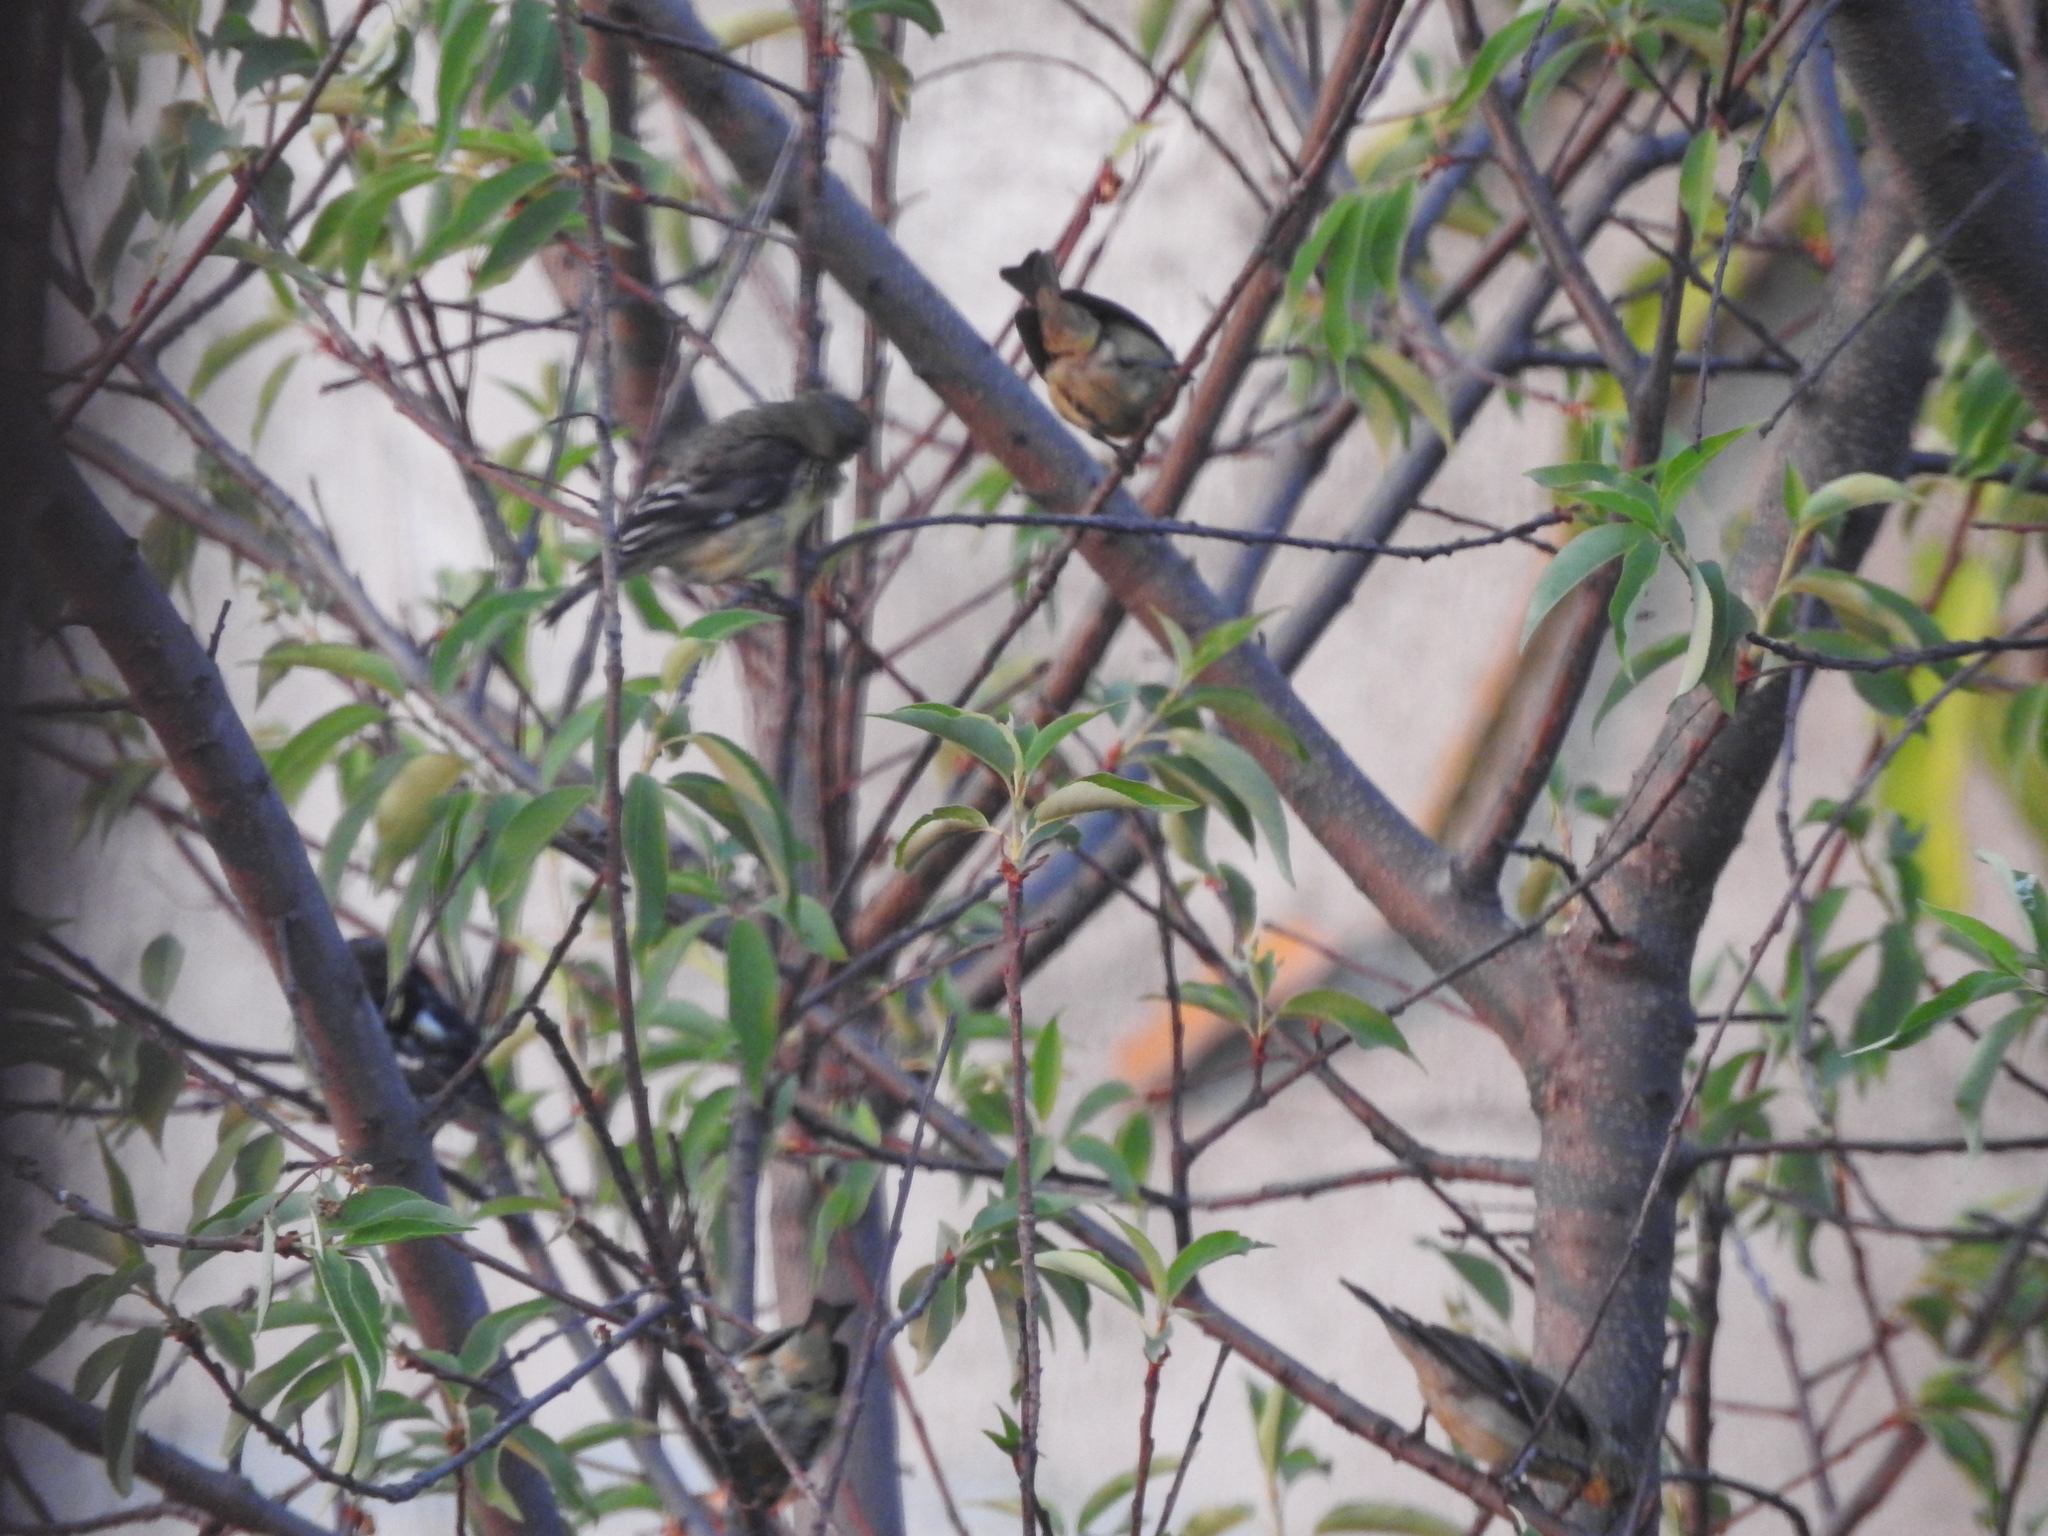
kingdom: Animalia
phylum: Chordata
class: Aves
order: Passeriformes
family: Fringillidae
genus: Spinus
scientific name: Spinus psaltria
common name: Lesser goldfinch
